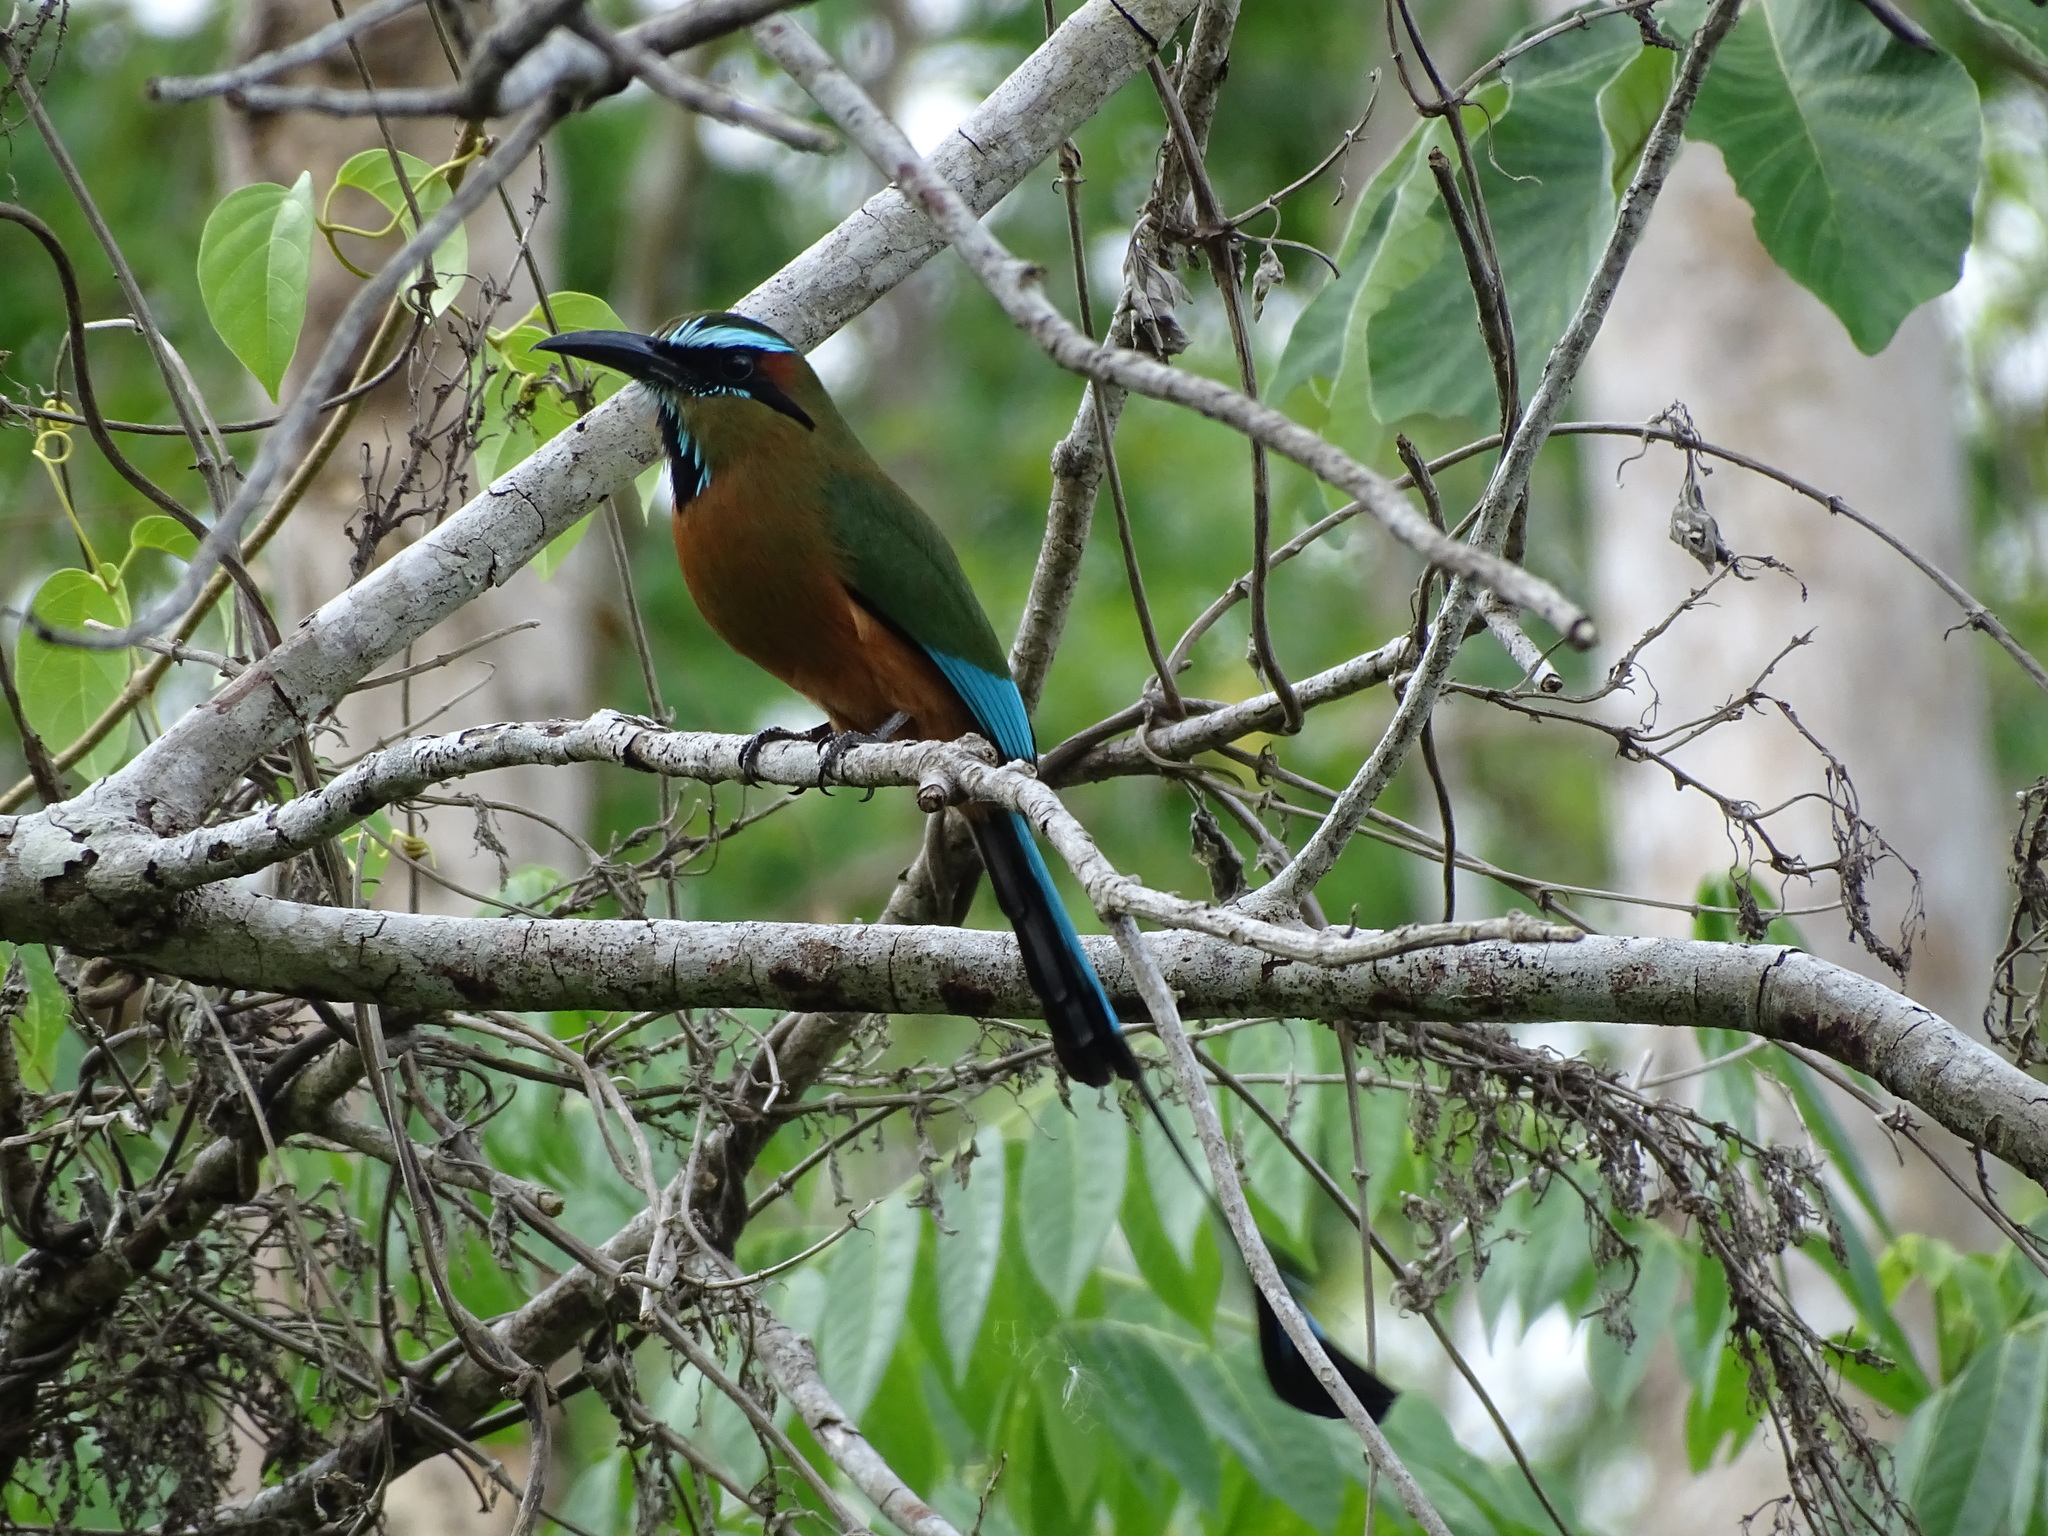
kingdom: Animalia
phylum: Chordata
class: Aves
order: Coraciiformes
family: Momotidae
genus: Eumomota
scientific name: Eumomota superciliosa
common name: Turquoise-browed motmot
